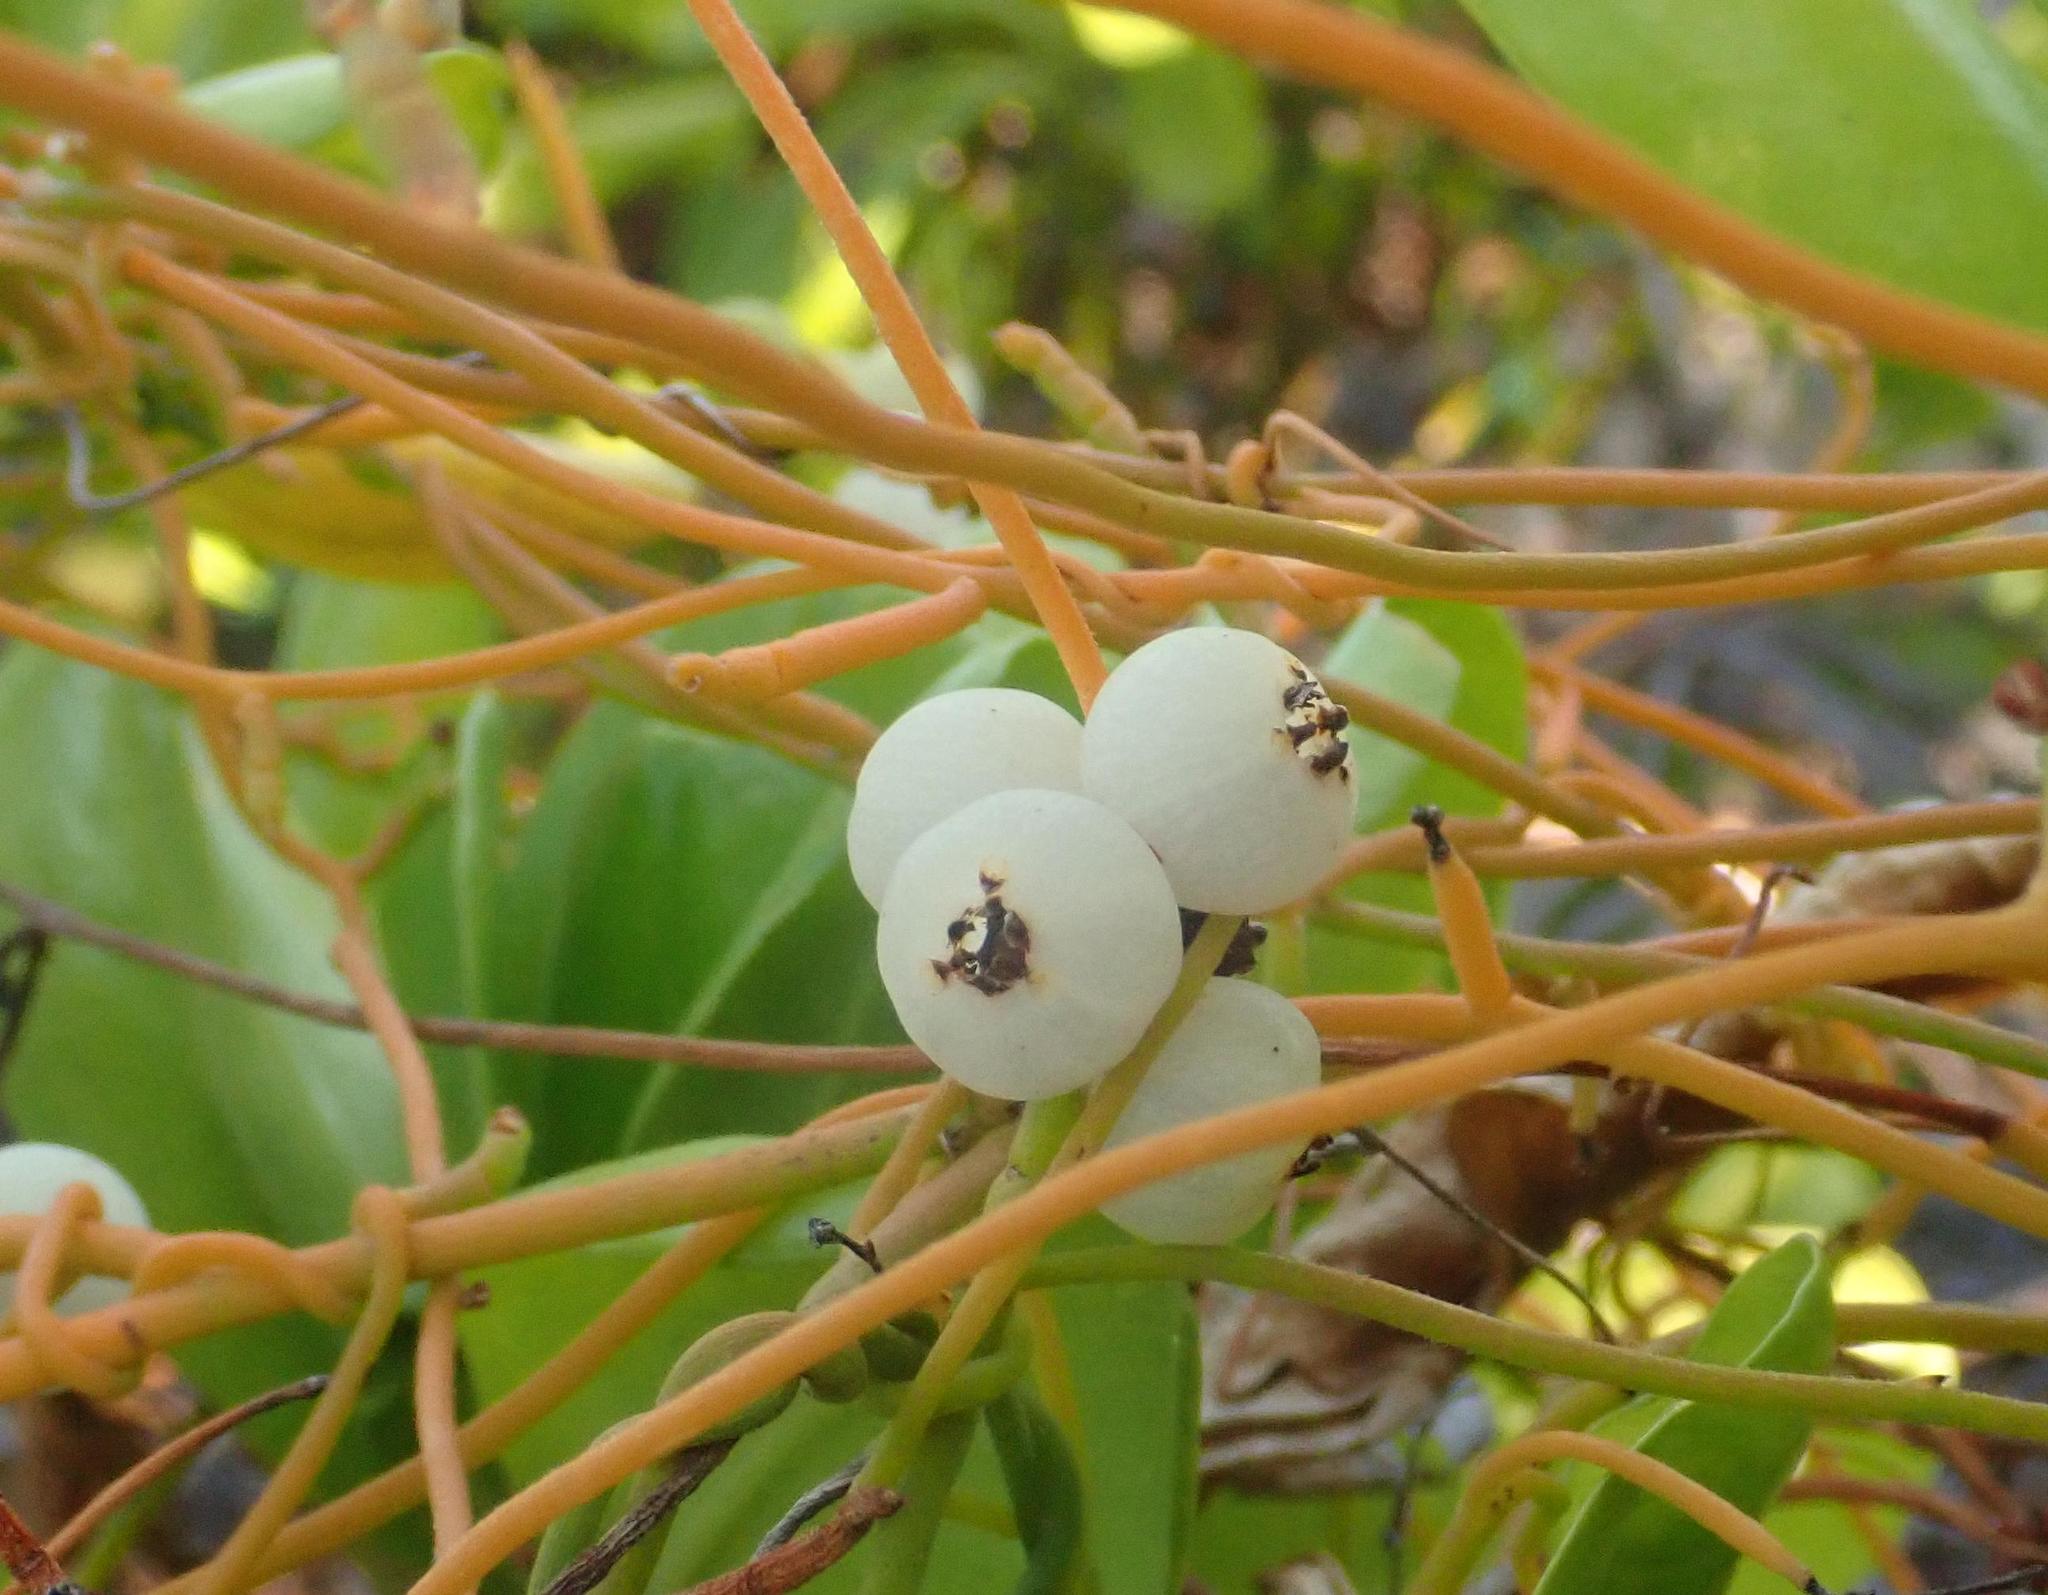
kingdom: Plantae
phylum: Tracheophyta
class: Magnoliopsida
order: Laurales
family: Lauraceae
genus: Cassytha
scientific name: Cassytha filiformis
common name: Dodder-laurel
